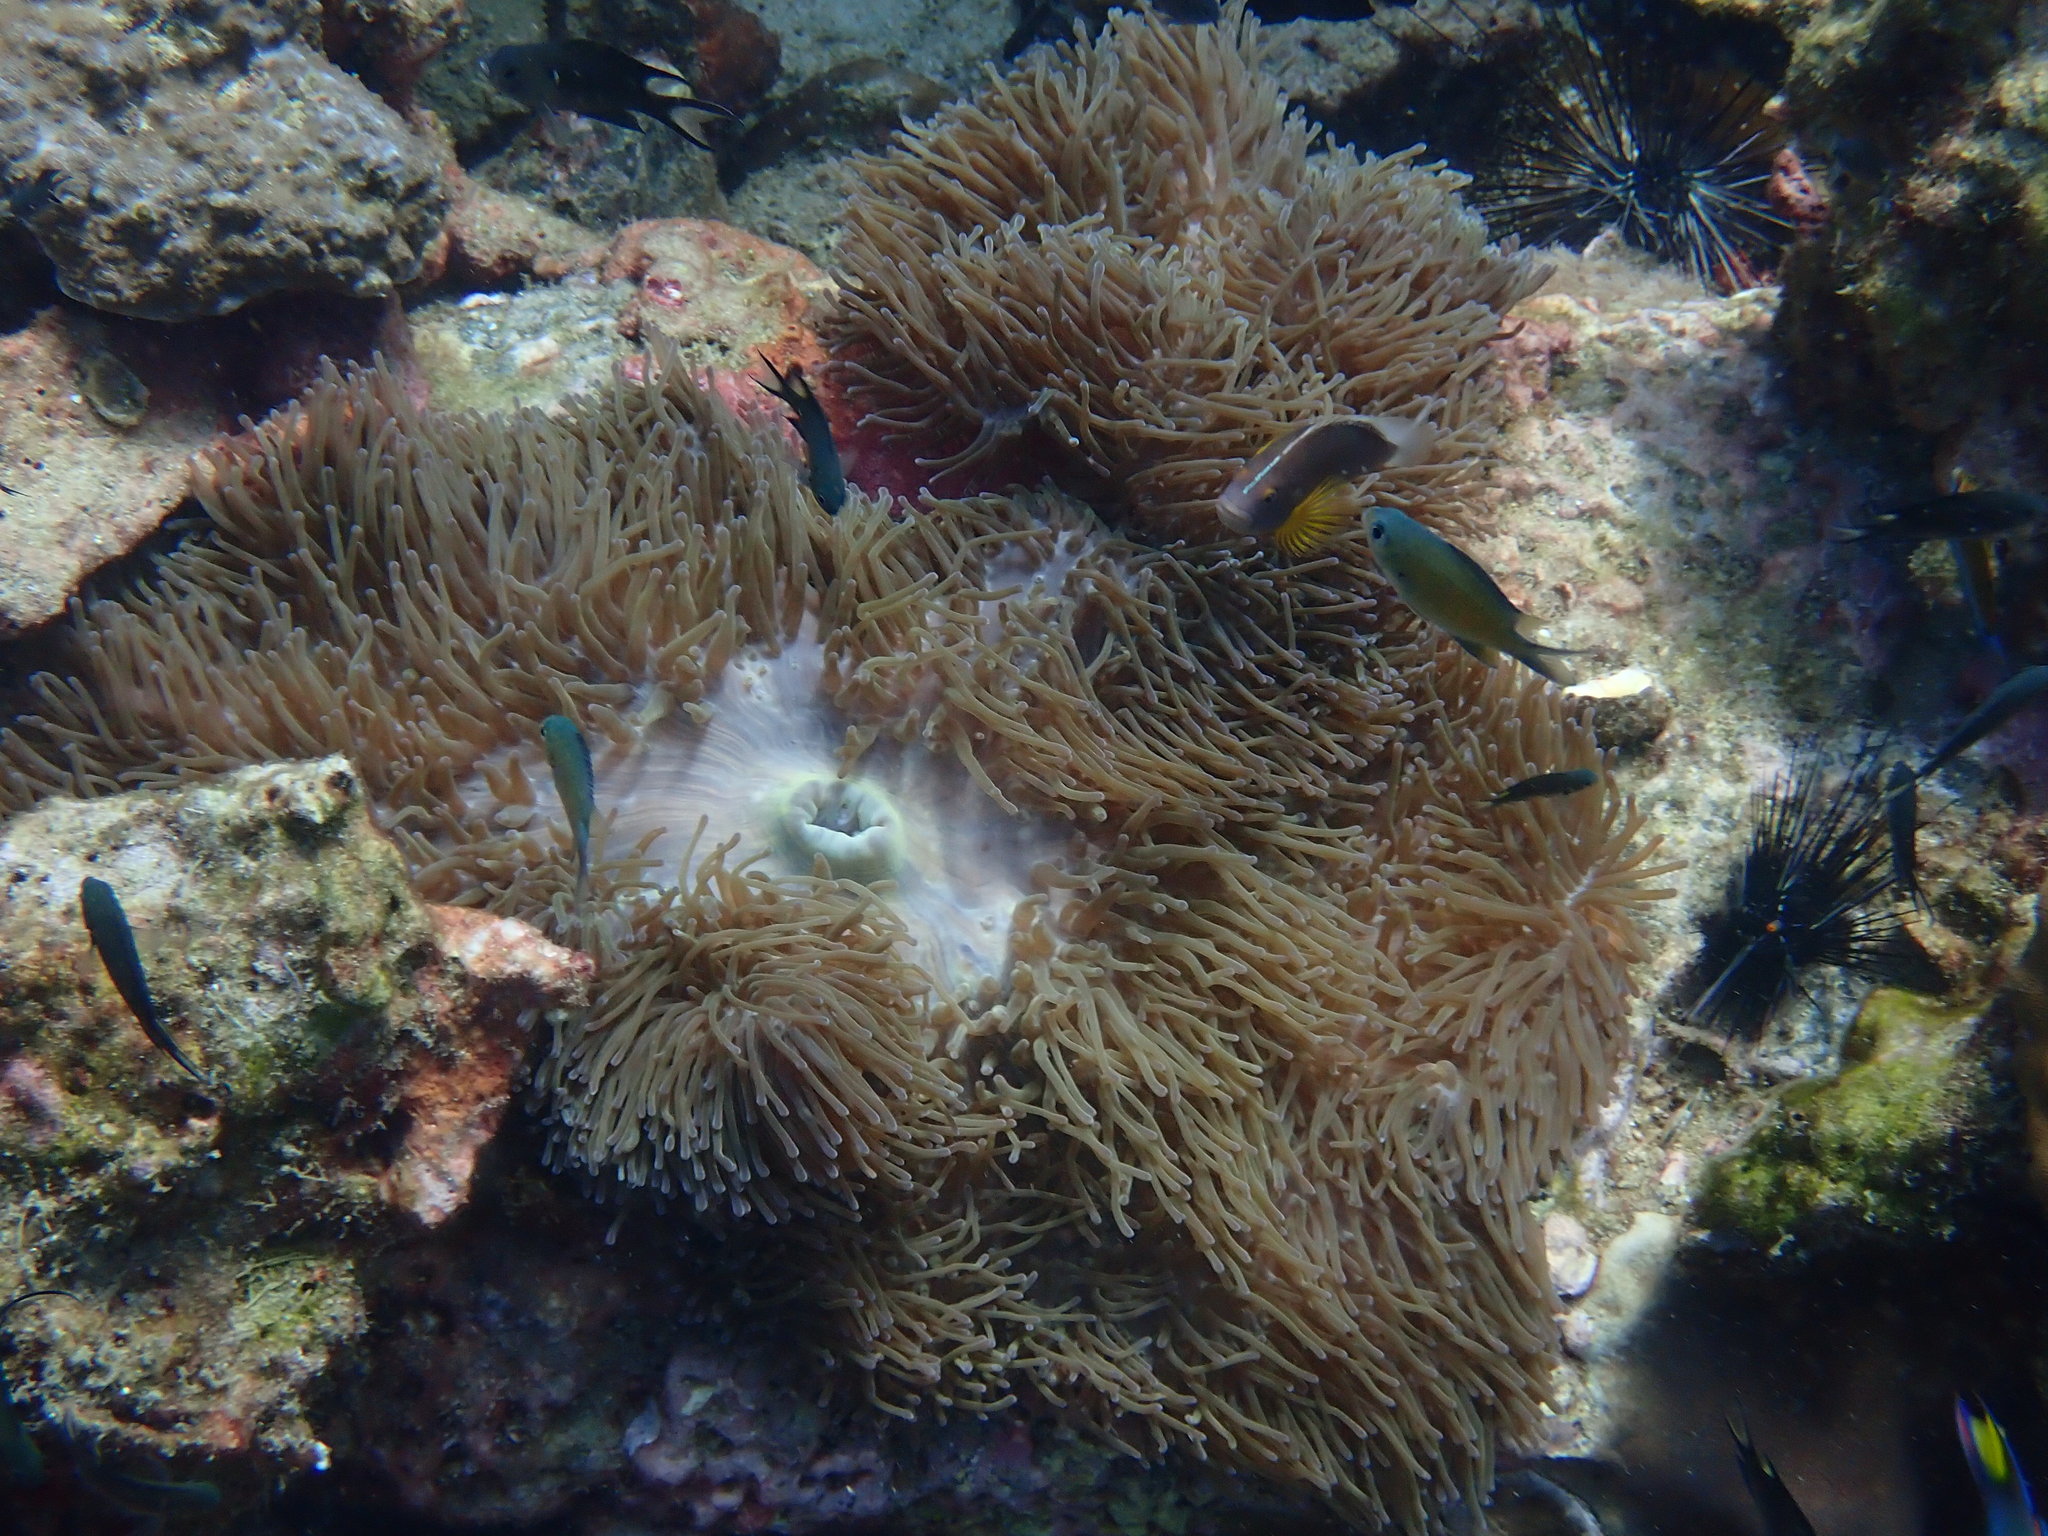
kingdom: Animalia
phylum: Cnidaria
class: Anthozoa
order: Actiniaria
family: Stichodactylidae
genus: Radianthus
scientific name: Radianthus magnifica
